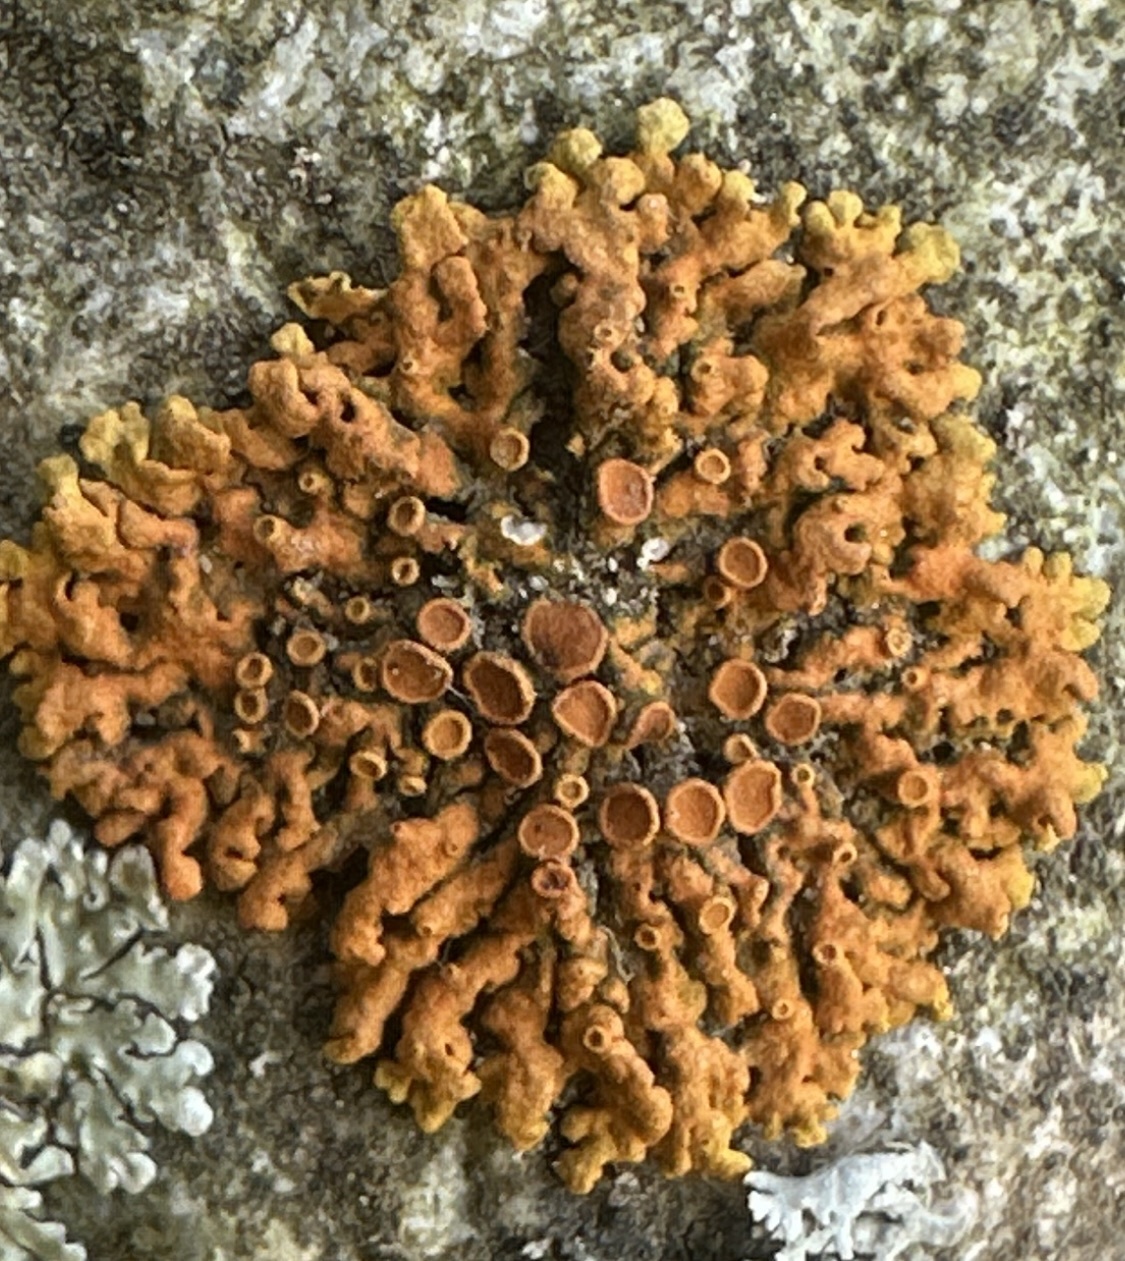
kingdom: Fungi
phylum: Ascomycota
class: Lecanoromycetes
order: Teloschistales
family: Teloschistaceae
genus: Xanthoria
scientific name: Xanthoria elegans
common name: Elegant sunburst lichen
